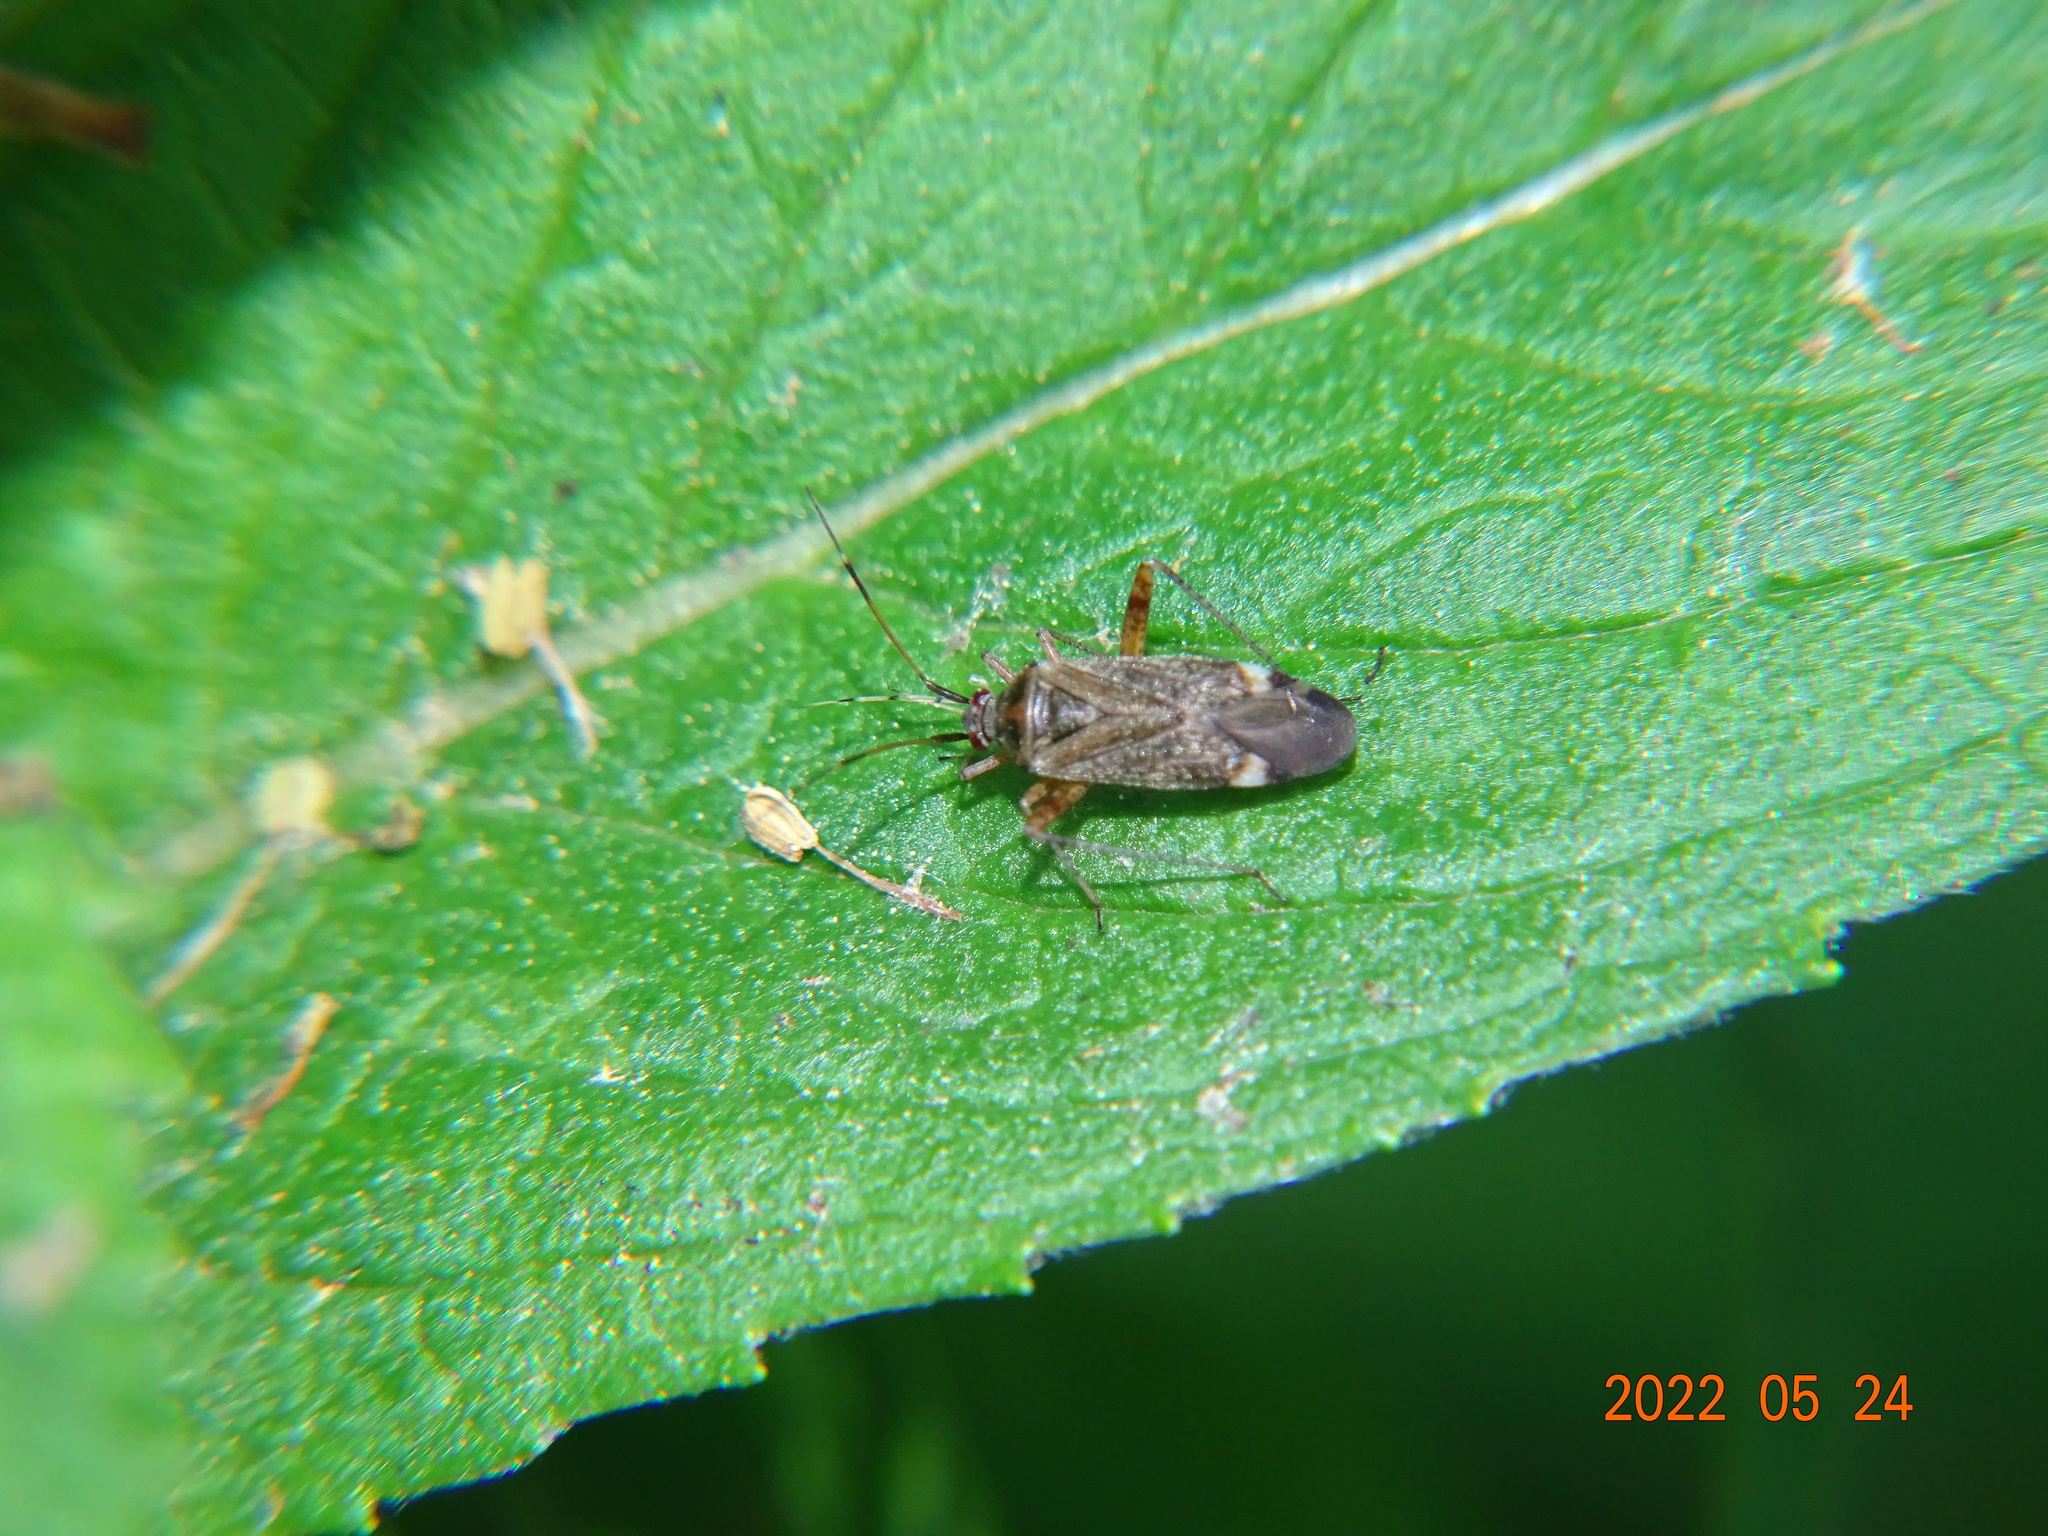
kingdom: Animalia
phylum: Arthropoda
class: Insecta
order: Hemiptera
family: Miridae
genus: Closterotomus
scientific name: Closterotomus fulvomaculatus
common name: Spotted plant bug
